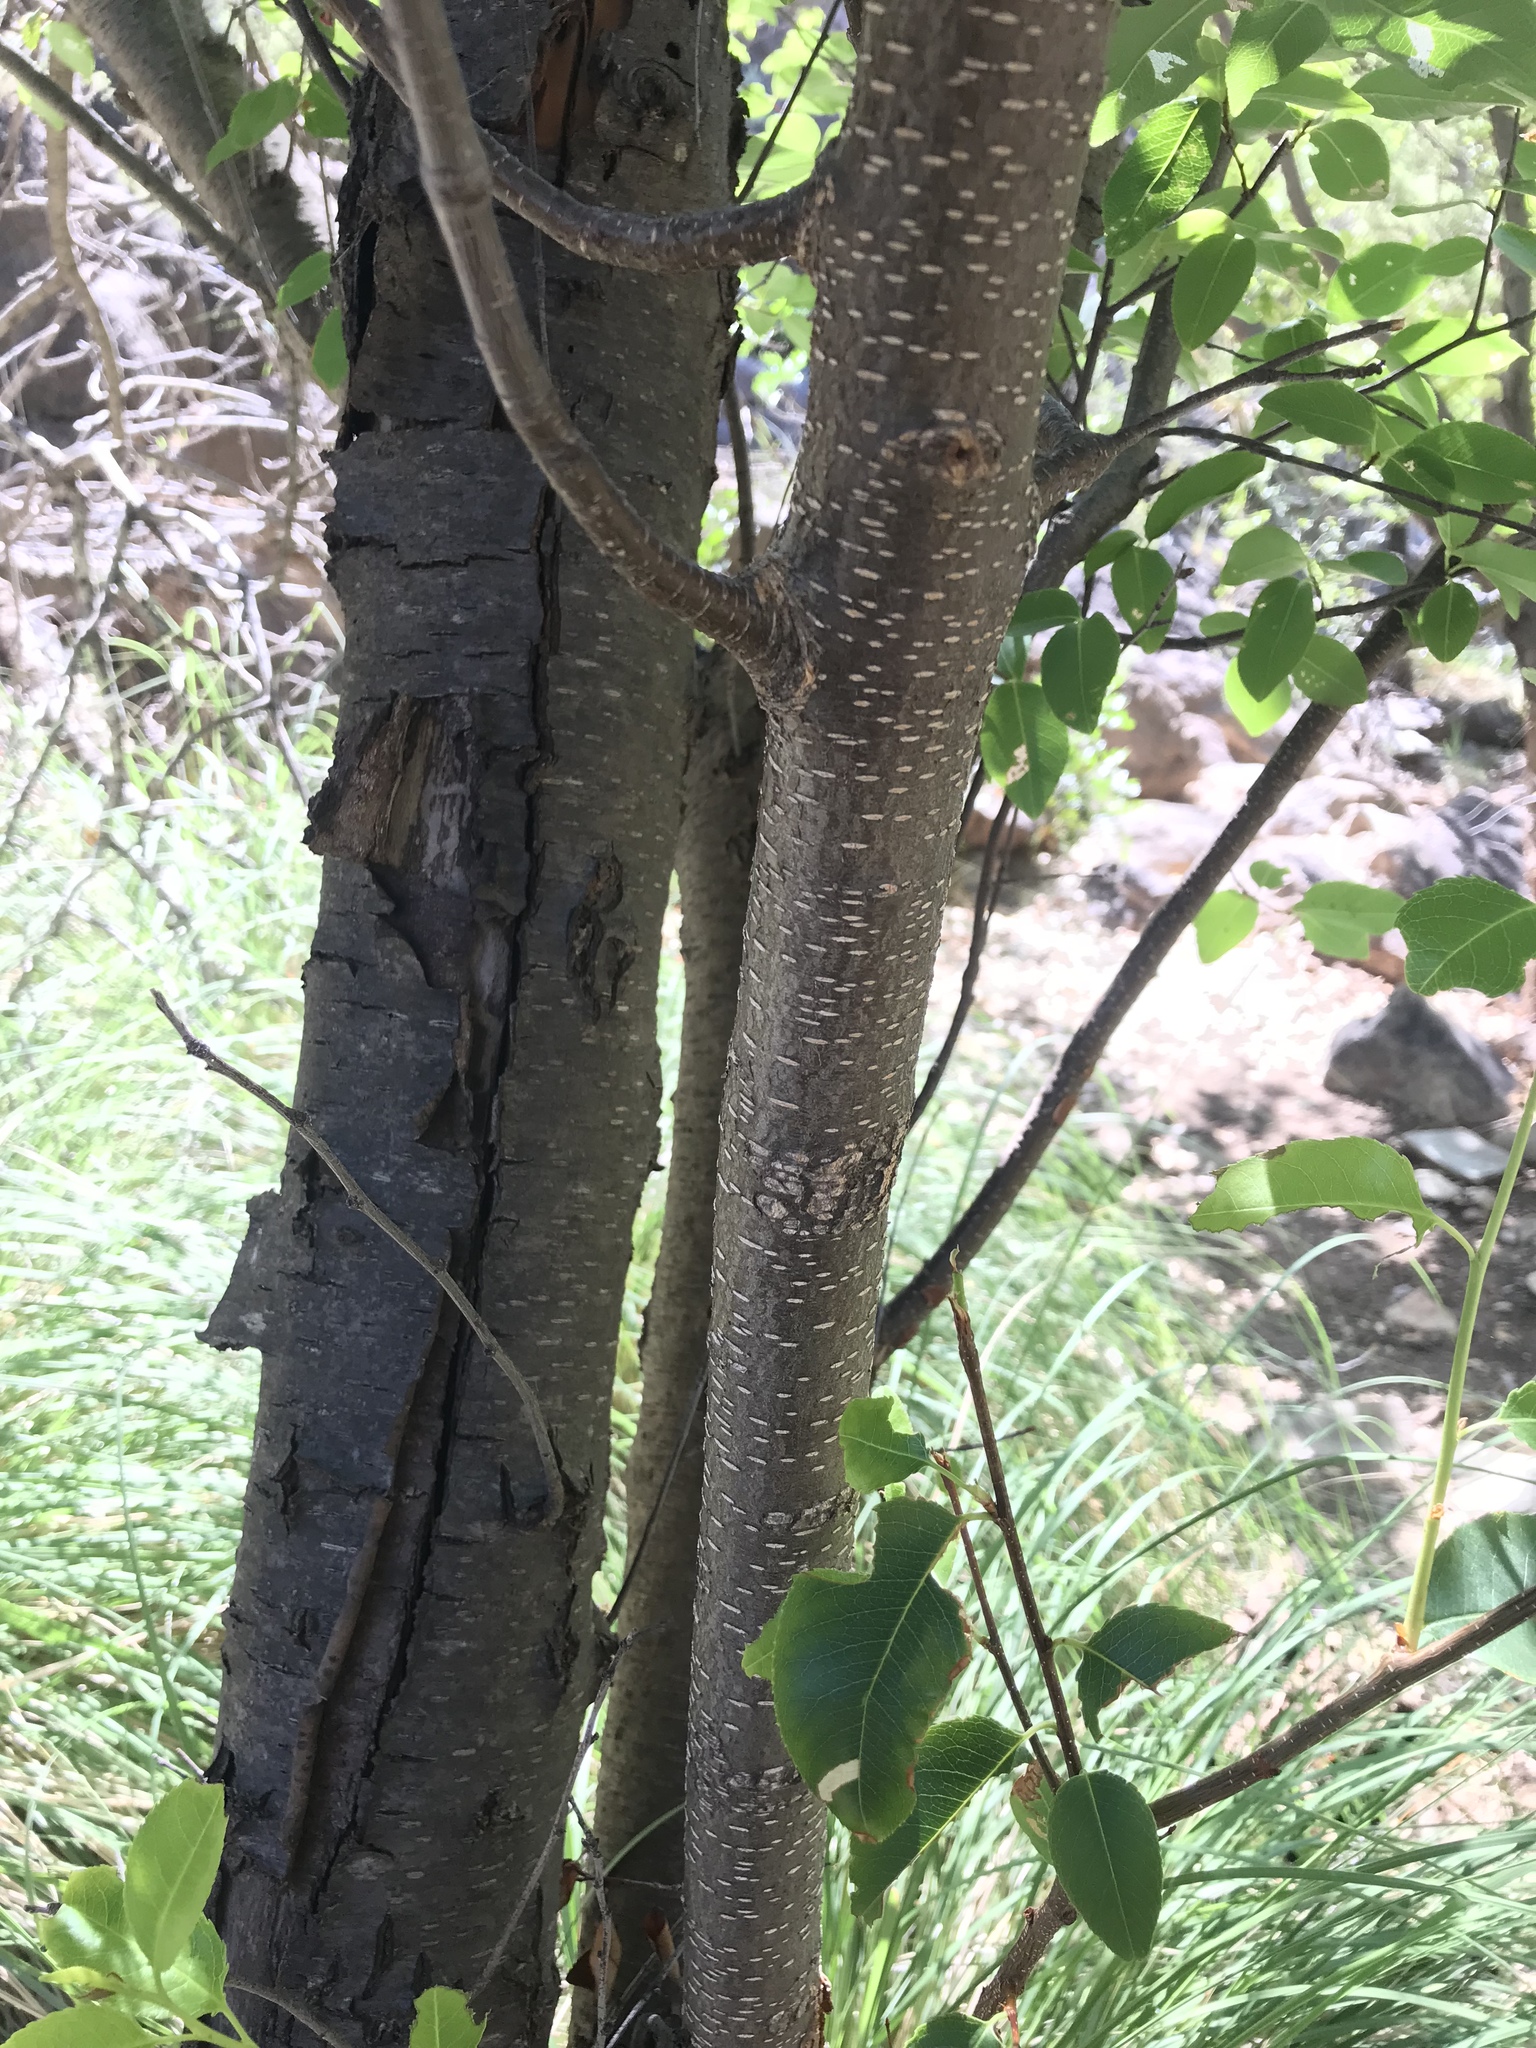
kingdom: Plantae
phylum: Tracheophyta
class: Magnoliopsida
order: Rosales
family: Rosaceae
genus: Prunus
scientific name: Prunus serotina
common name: Black cherry
